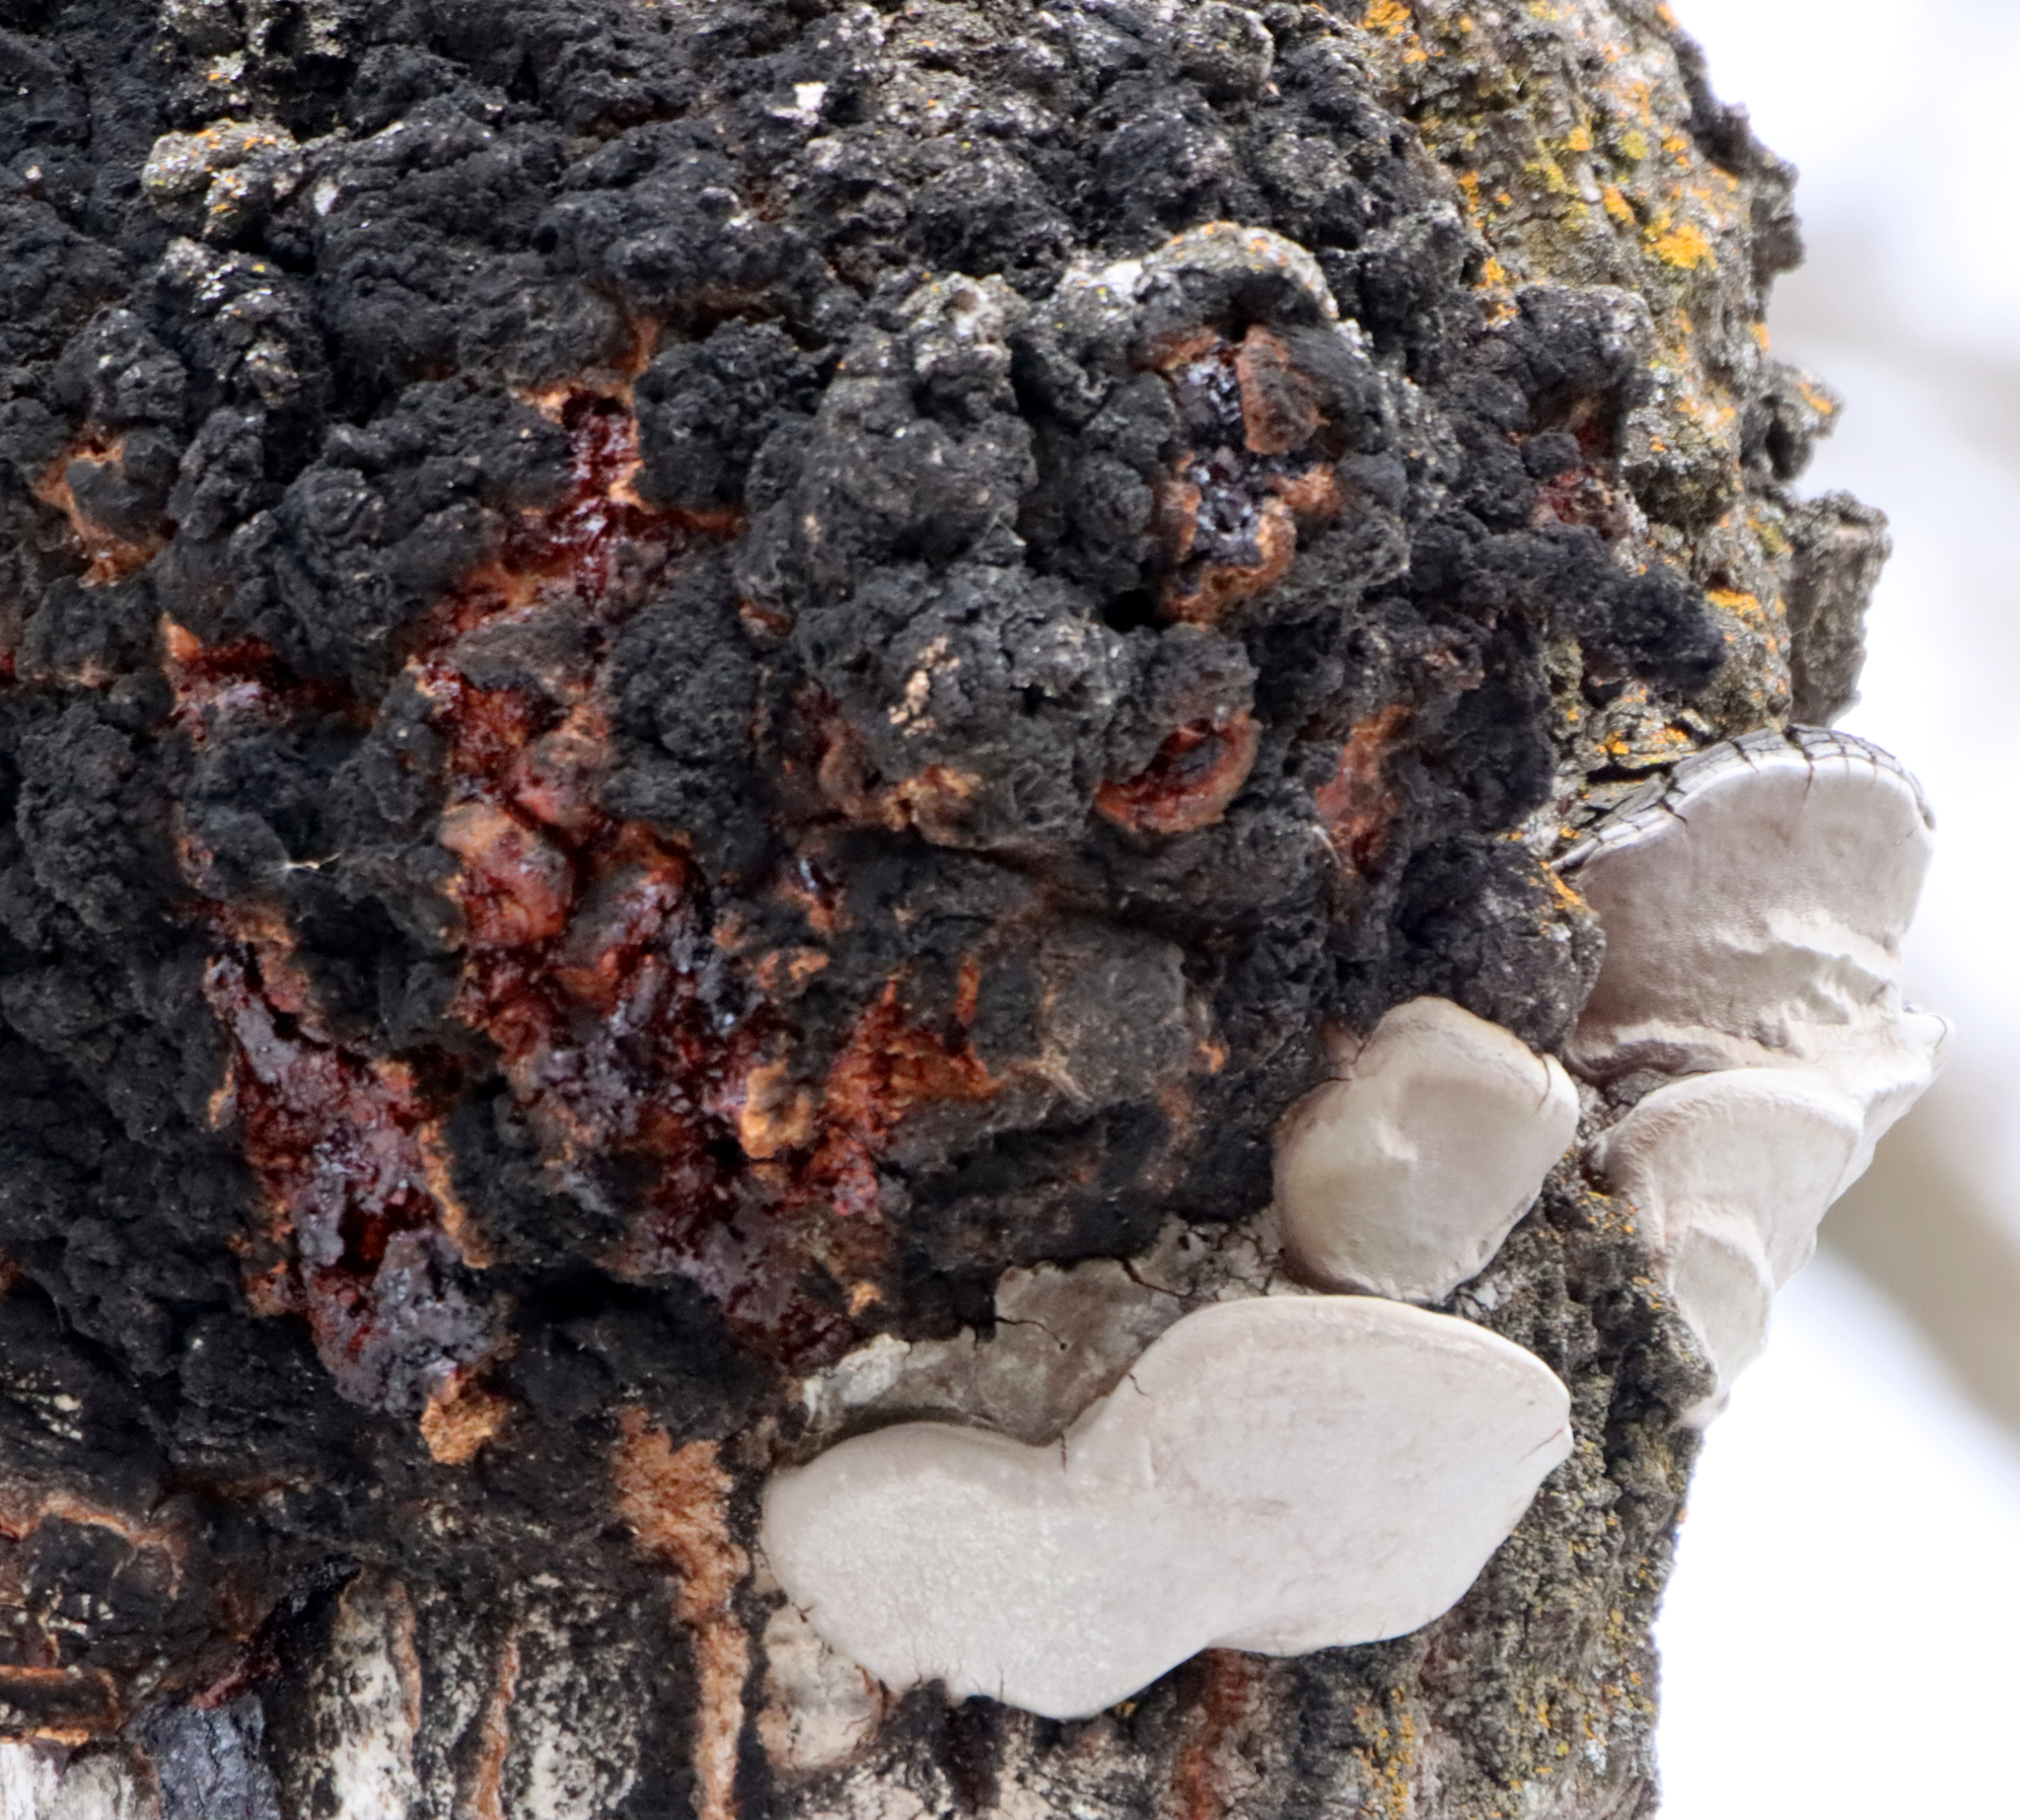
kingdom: Fungi
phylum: Ascomycota
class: Dothideomycetes
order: Botryosphaeriales
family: Botryosphaeriaceae
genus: Diplodia
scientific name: Diplodia tumefaciens
